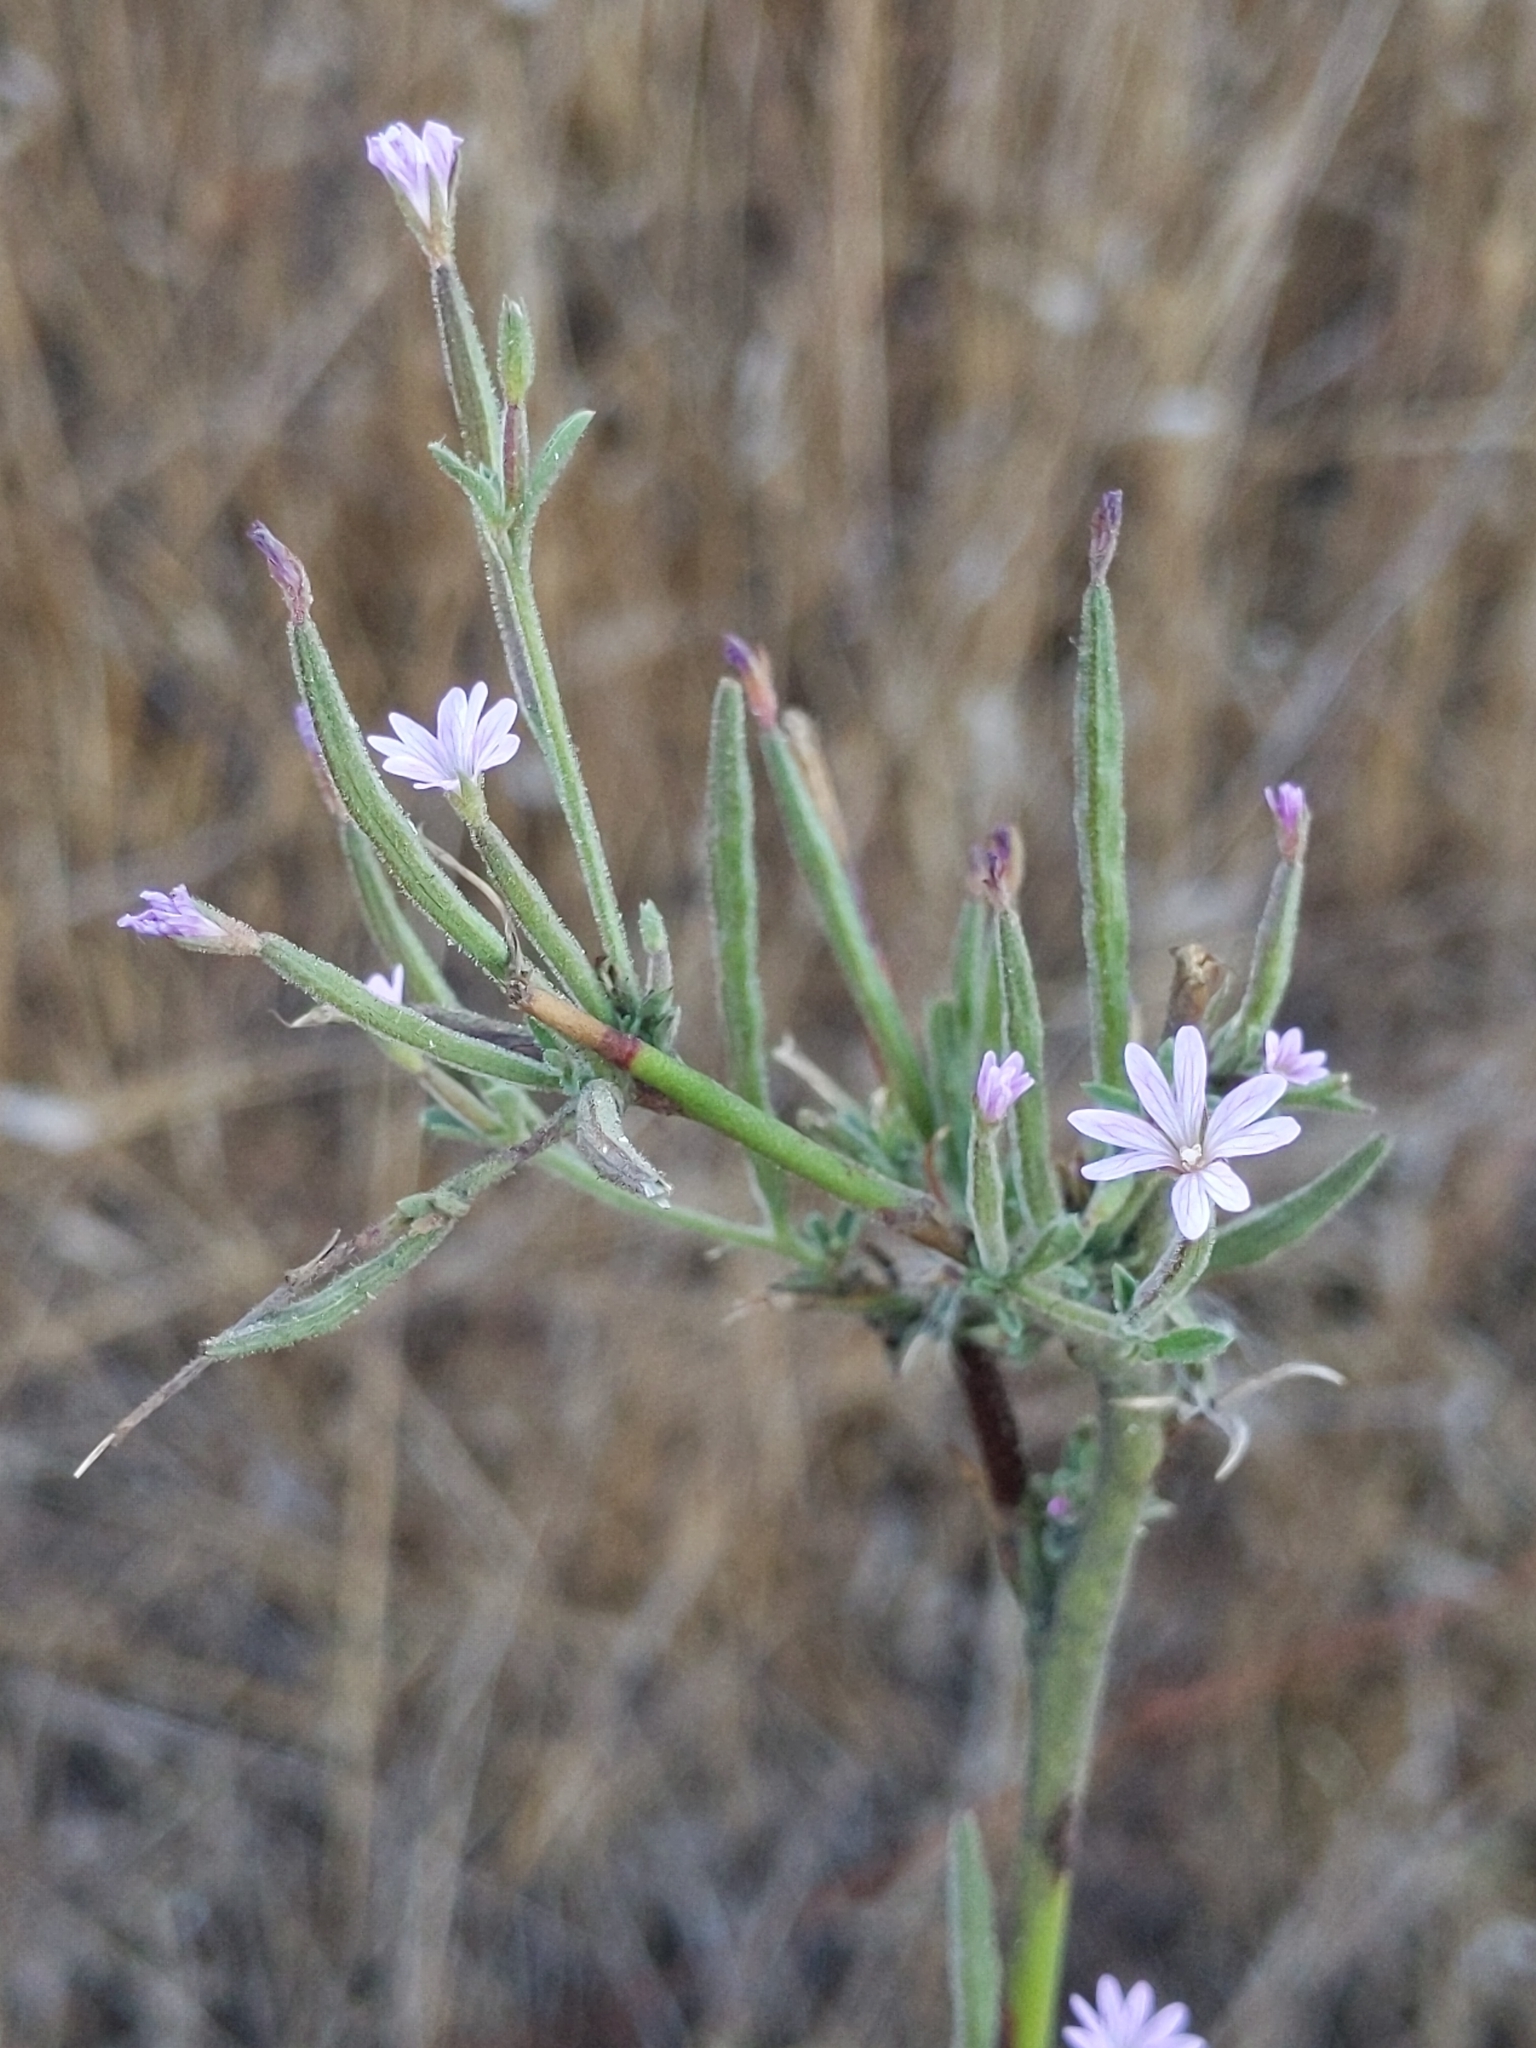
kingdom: Plantae
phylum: Tracheophyta
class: Magnoliopsida
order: Myrtales
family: Onagraceae
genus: Epilobium
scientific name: Epilobium brachycarpum
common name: Annual willowherb
